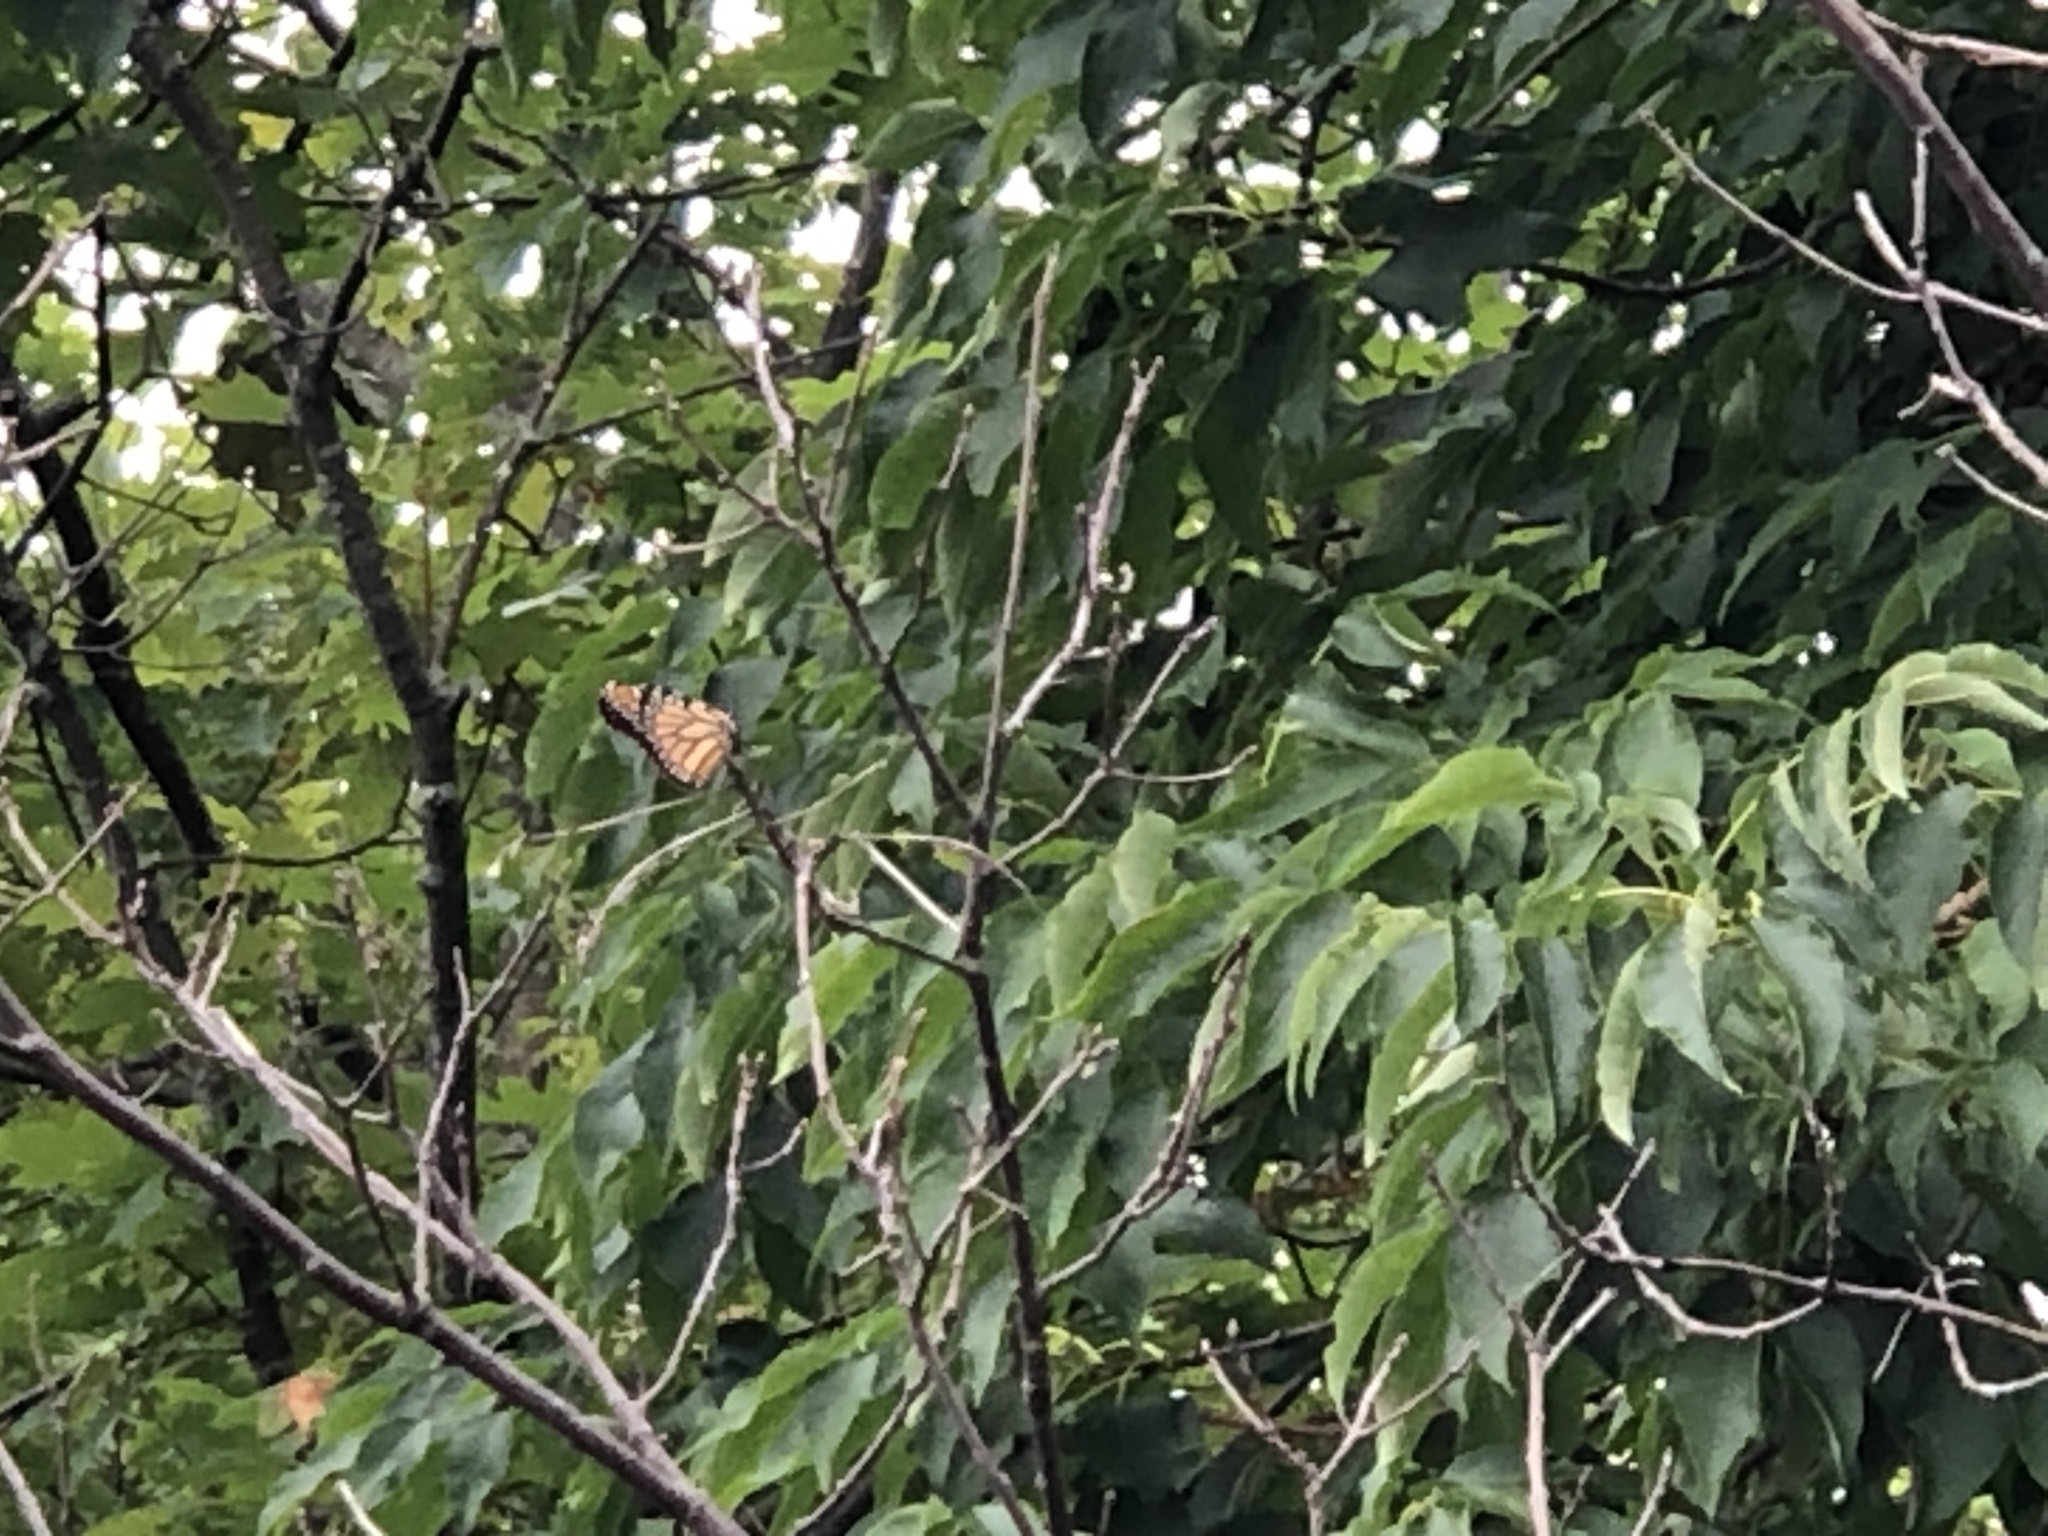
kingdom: Animalia
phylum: Arthropoda
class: Insecta
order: Lepidoptera
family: Nymphalidae
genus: Danaus
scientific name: Danaus plexippus
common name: Monarch
